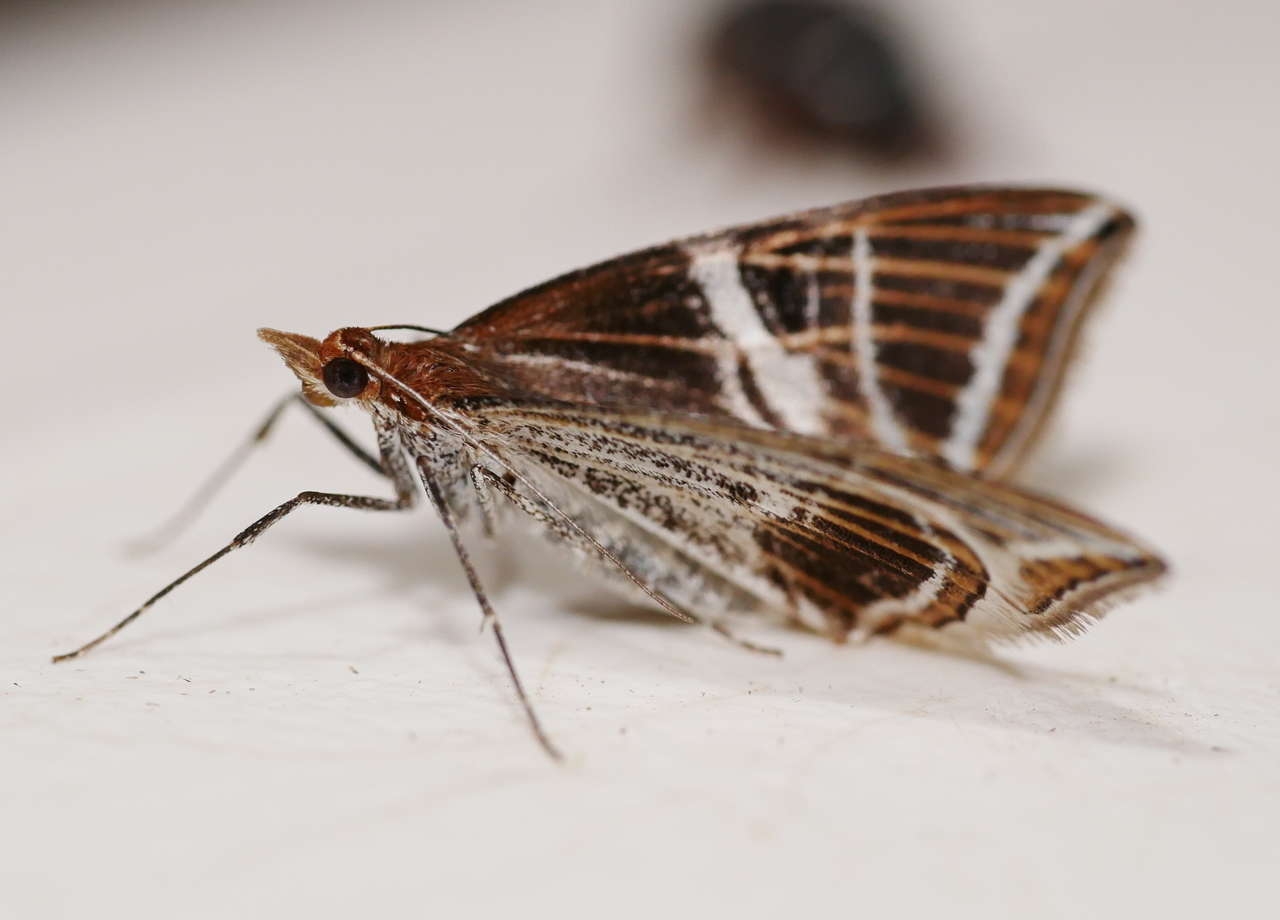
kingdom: Animalia
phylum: Arthropoda
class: Insecta
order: Lepidoptera
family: Geometridae
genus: Phrataria
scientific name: Phrataria transcissata
